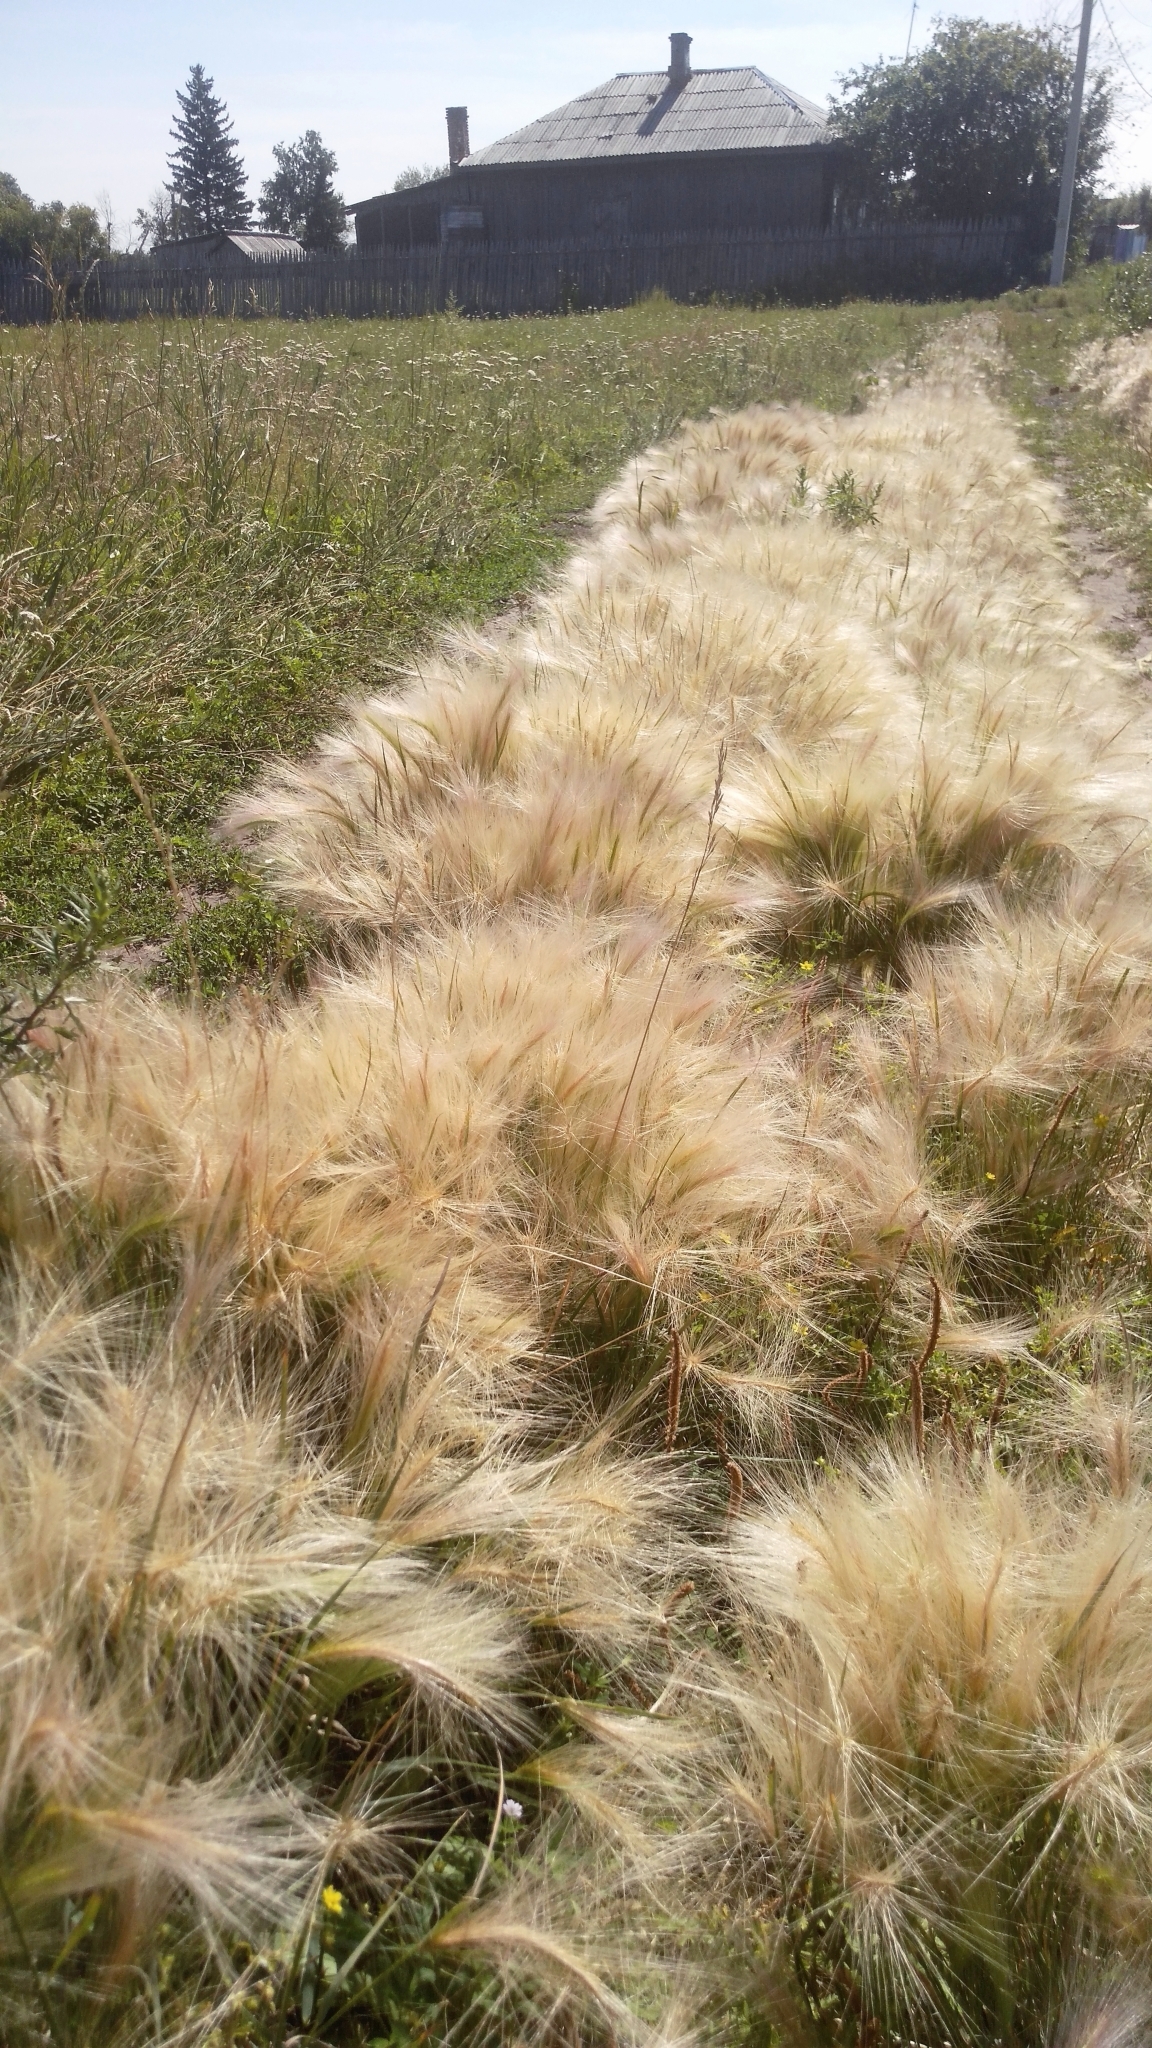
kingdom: Plantae
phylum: Tracheophyta
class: Liliopsida
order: Poales
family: Poaceae
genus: Hordeum
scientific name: Hordeum jubatum
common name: Foxtail barley
